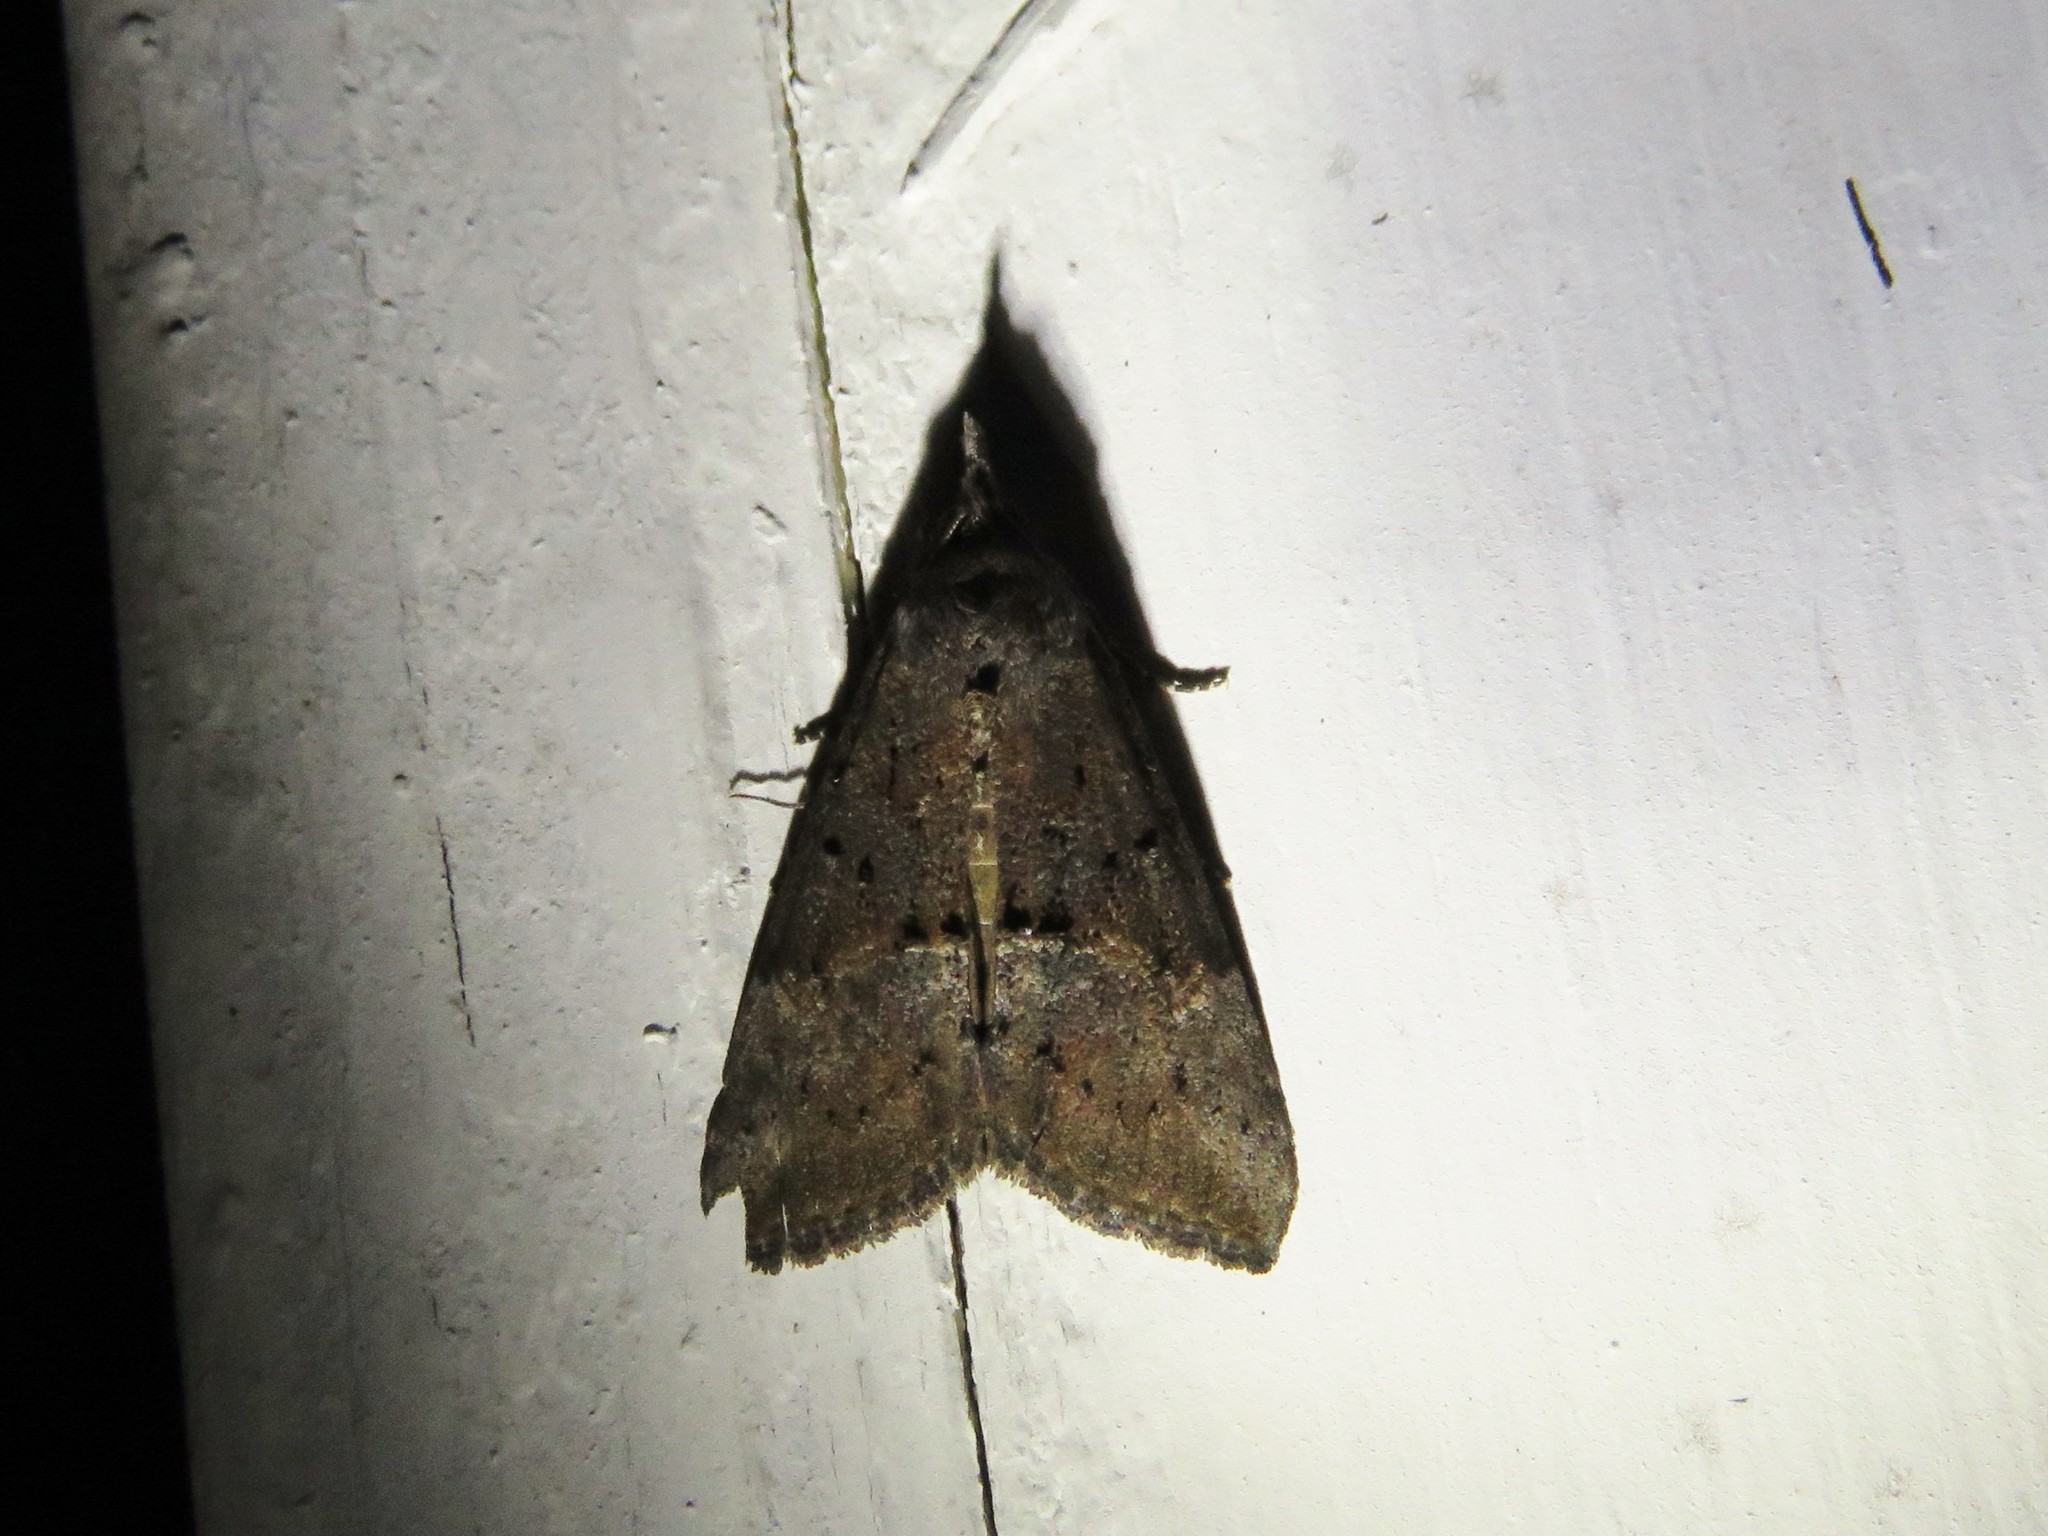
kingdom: Animalia
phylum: Arthropoda
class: Insecta
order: Lepidoptera
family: Erebidae
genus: Hypena
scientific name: Hypena scabra
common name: Green cloverworm
